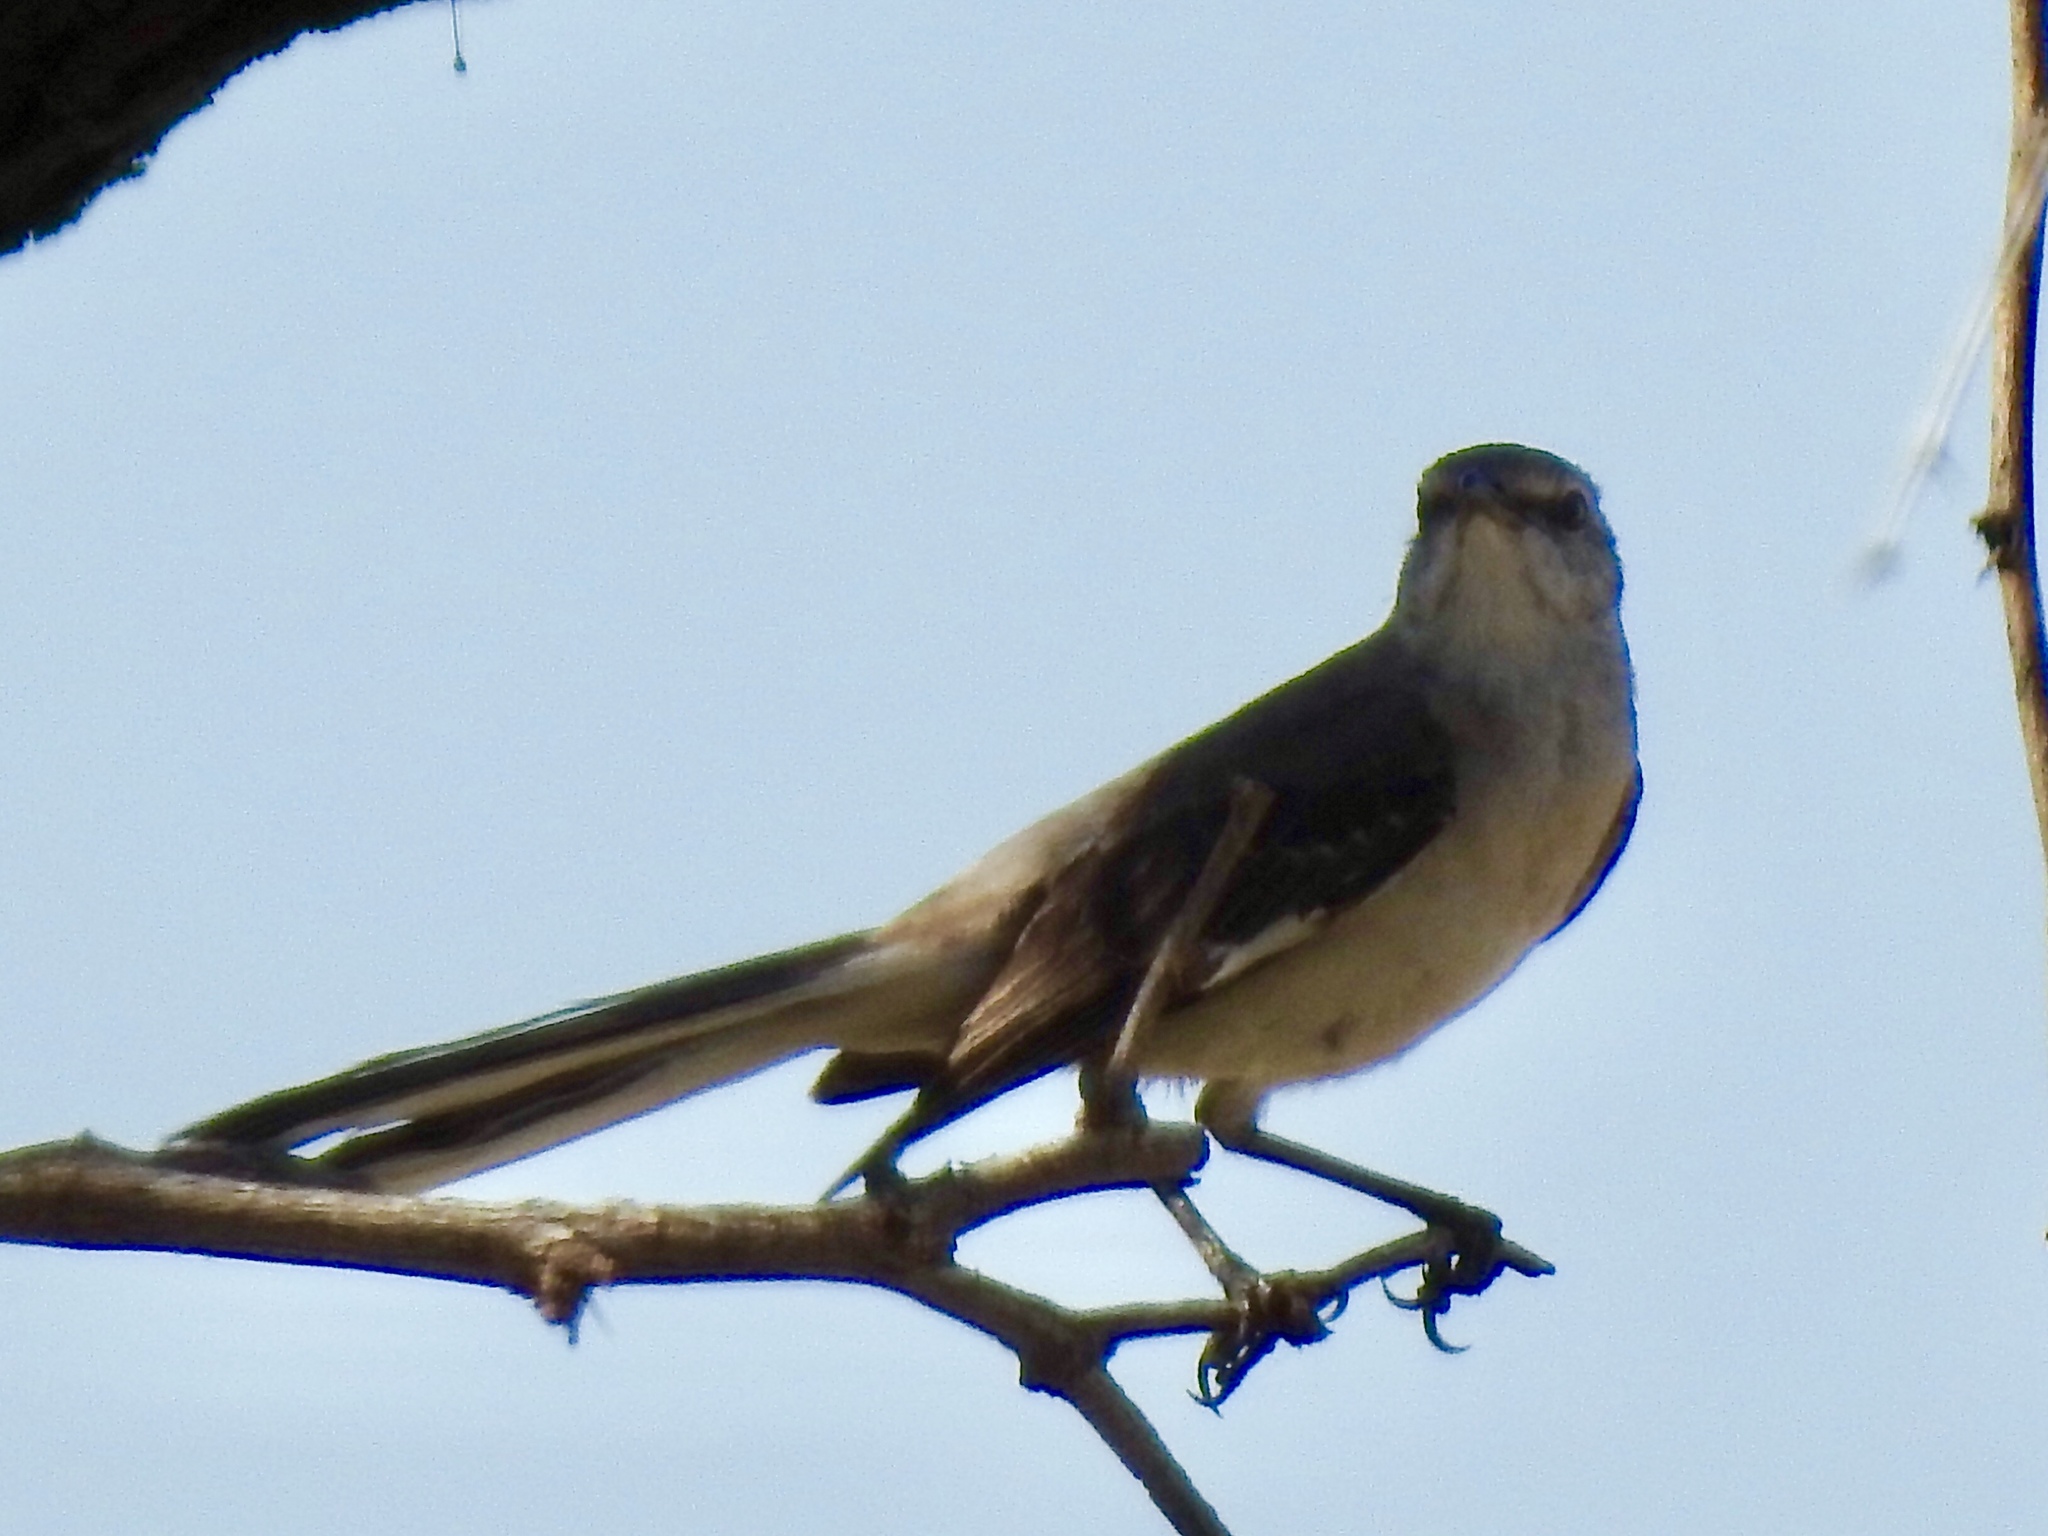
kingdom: Animalia
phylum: Chordata
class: Aves
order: Passeriformes
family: Mimidae
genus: Mimus
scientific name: Mimus polyglottos
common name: Northern mockingbird
